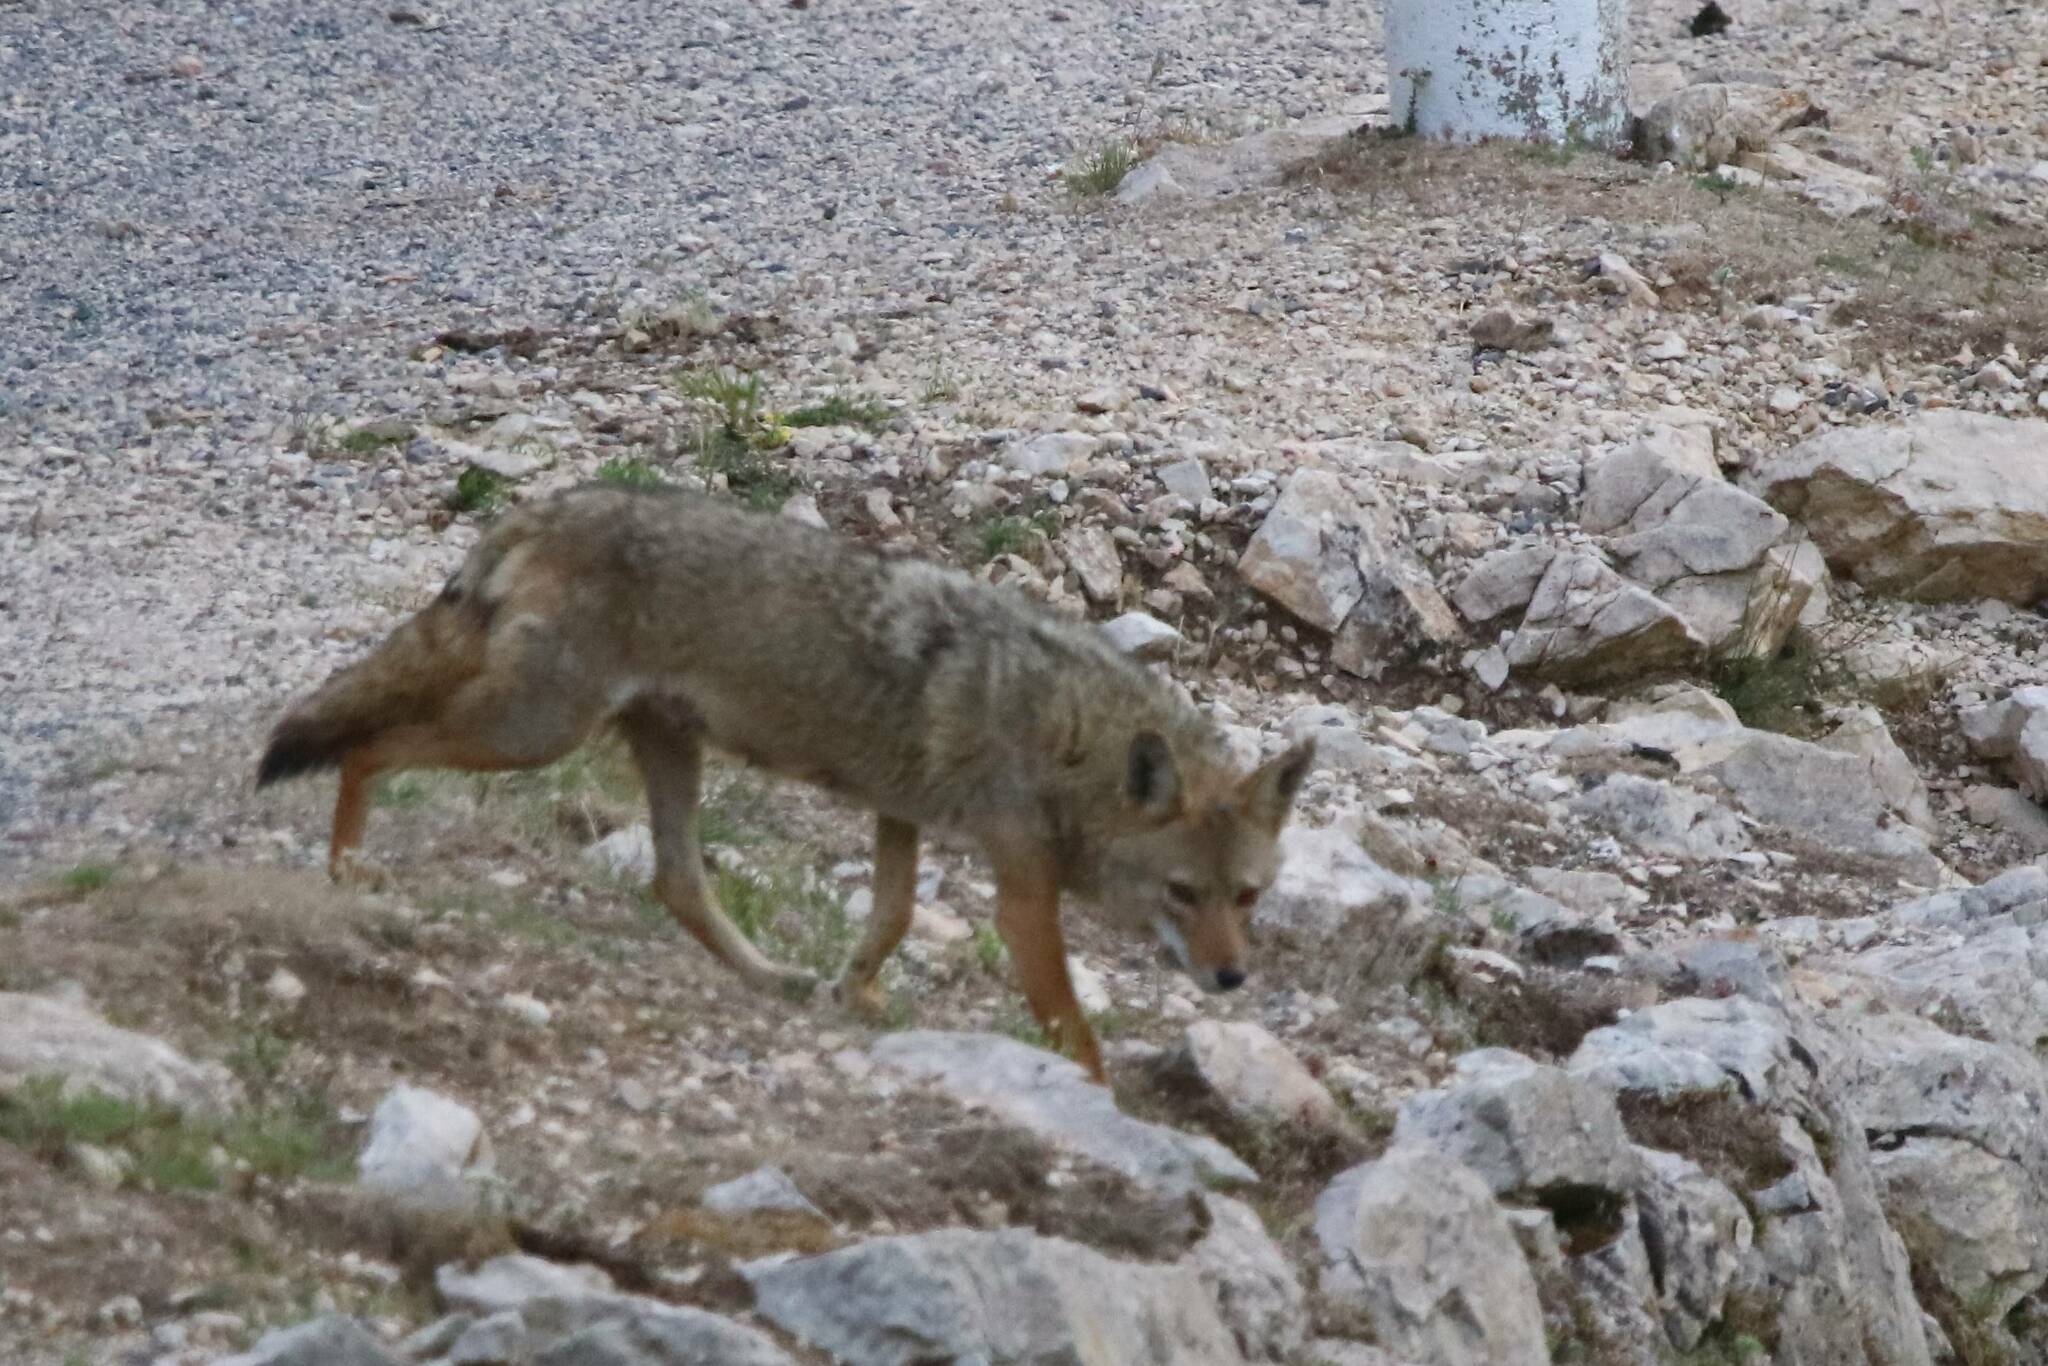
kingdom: Animalia
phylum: Chordata
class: Mammalia
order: Carnivora
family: Canidae
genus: Canis
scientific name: Canis lupaster
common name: African golden wolf
